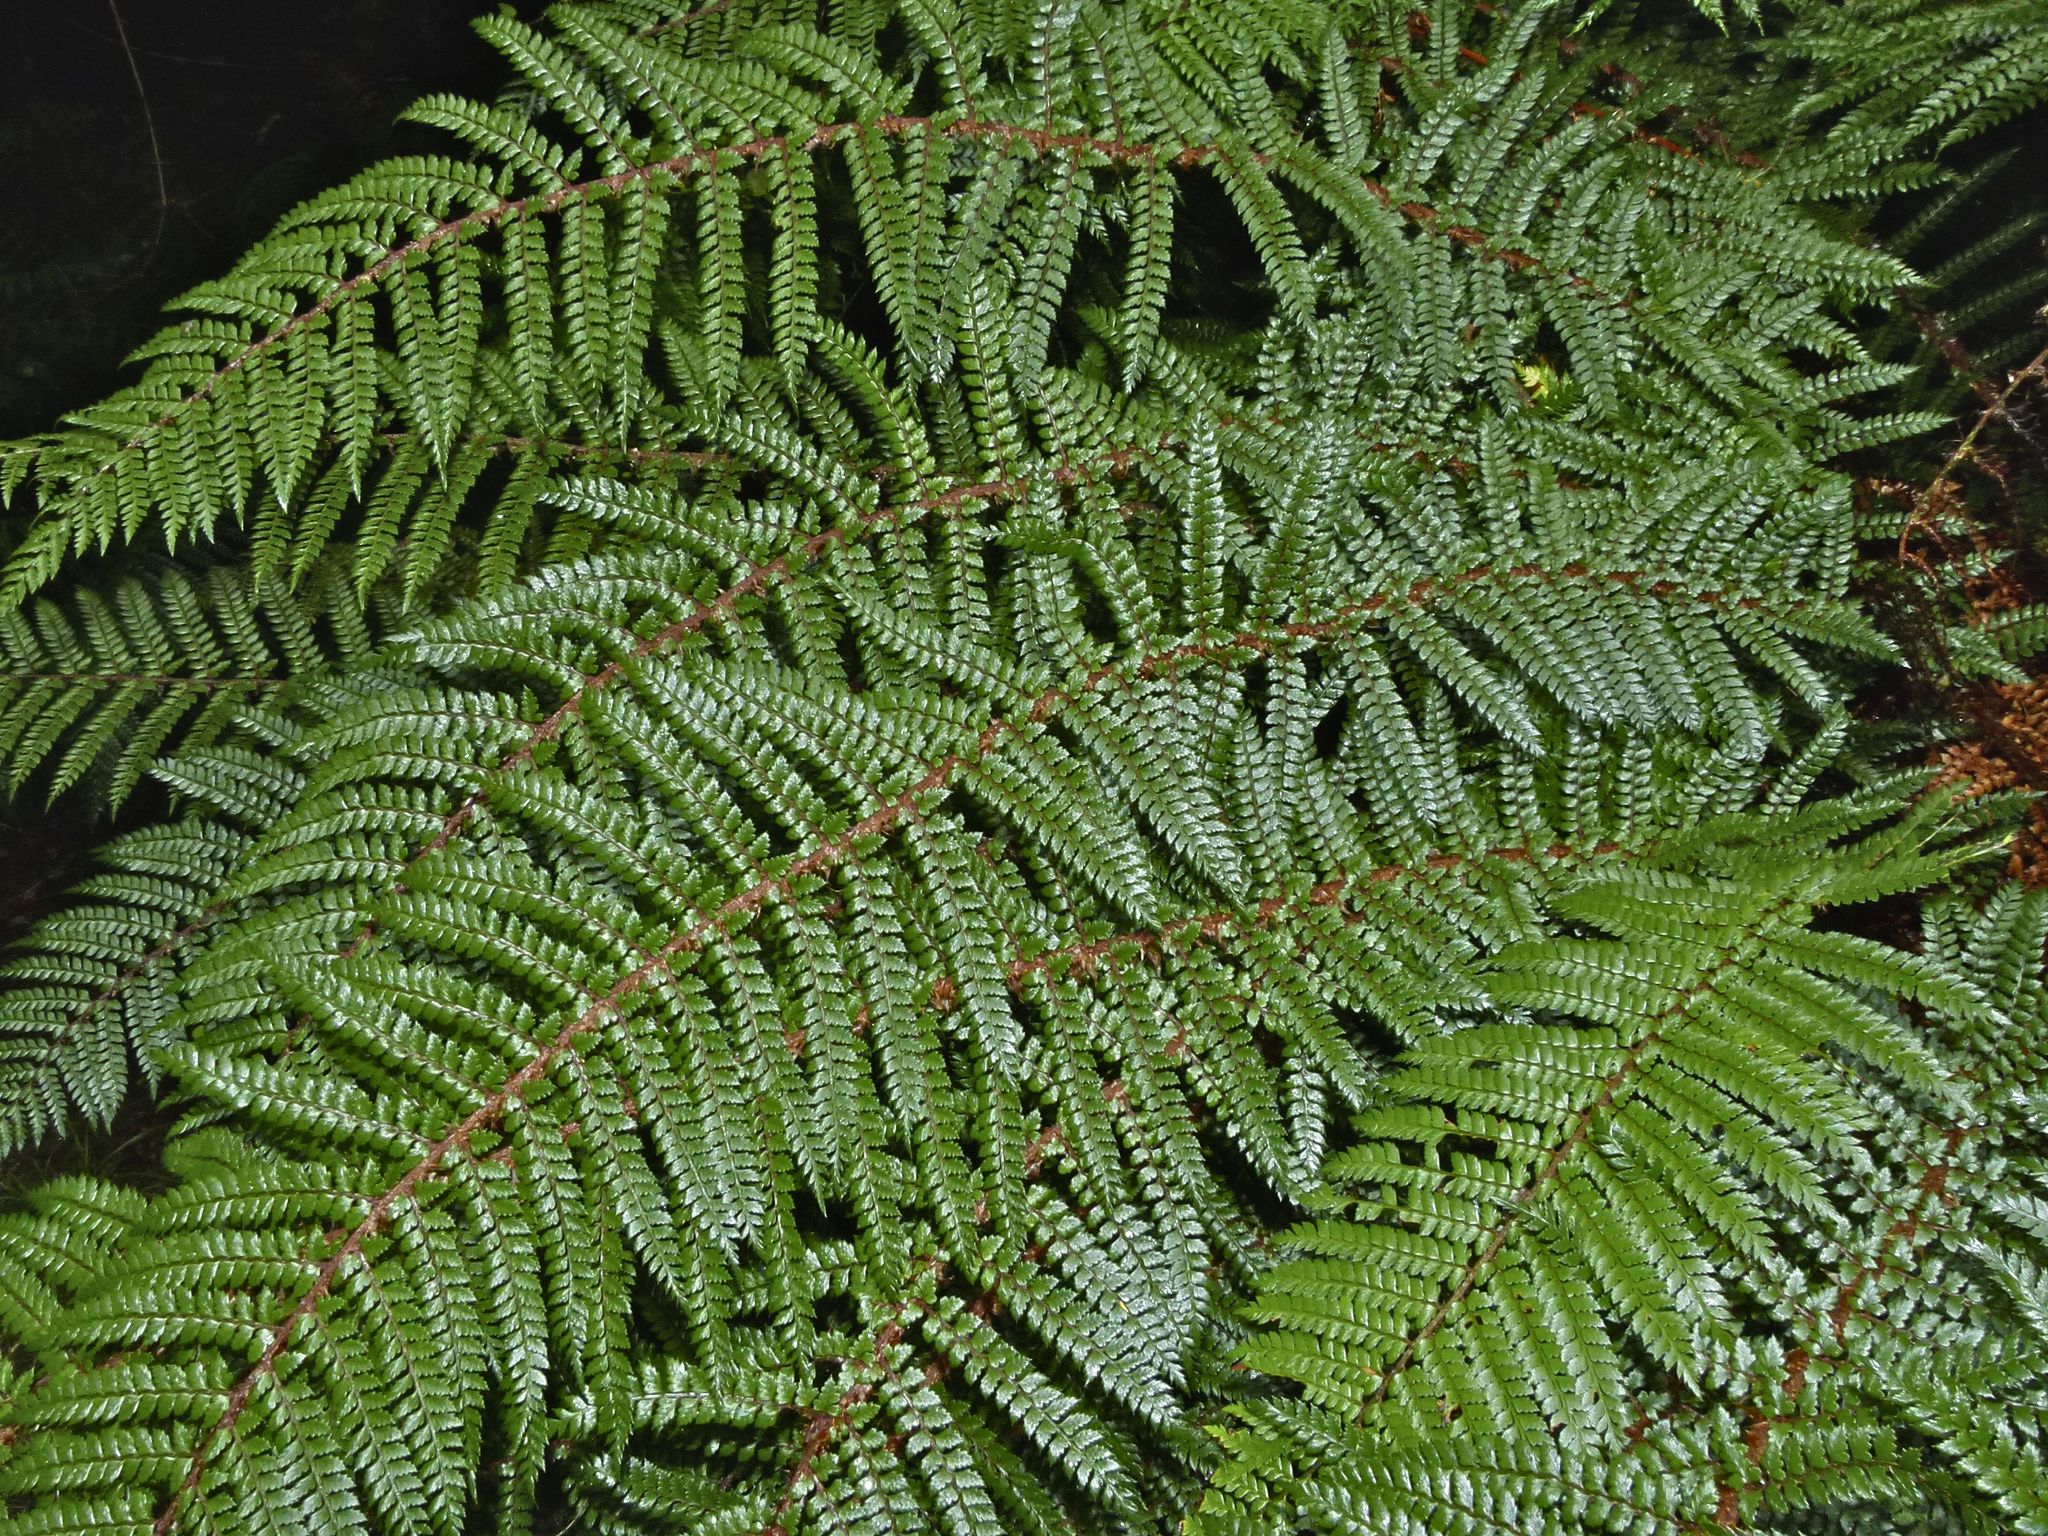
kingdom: Plantae
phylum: Tracheophyta
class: Polypodiopsida
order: Polypodiales
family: Dryopteridaceae
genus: Polystichum
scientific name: Polystichum vestitum
